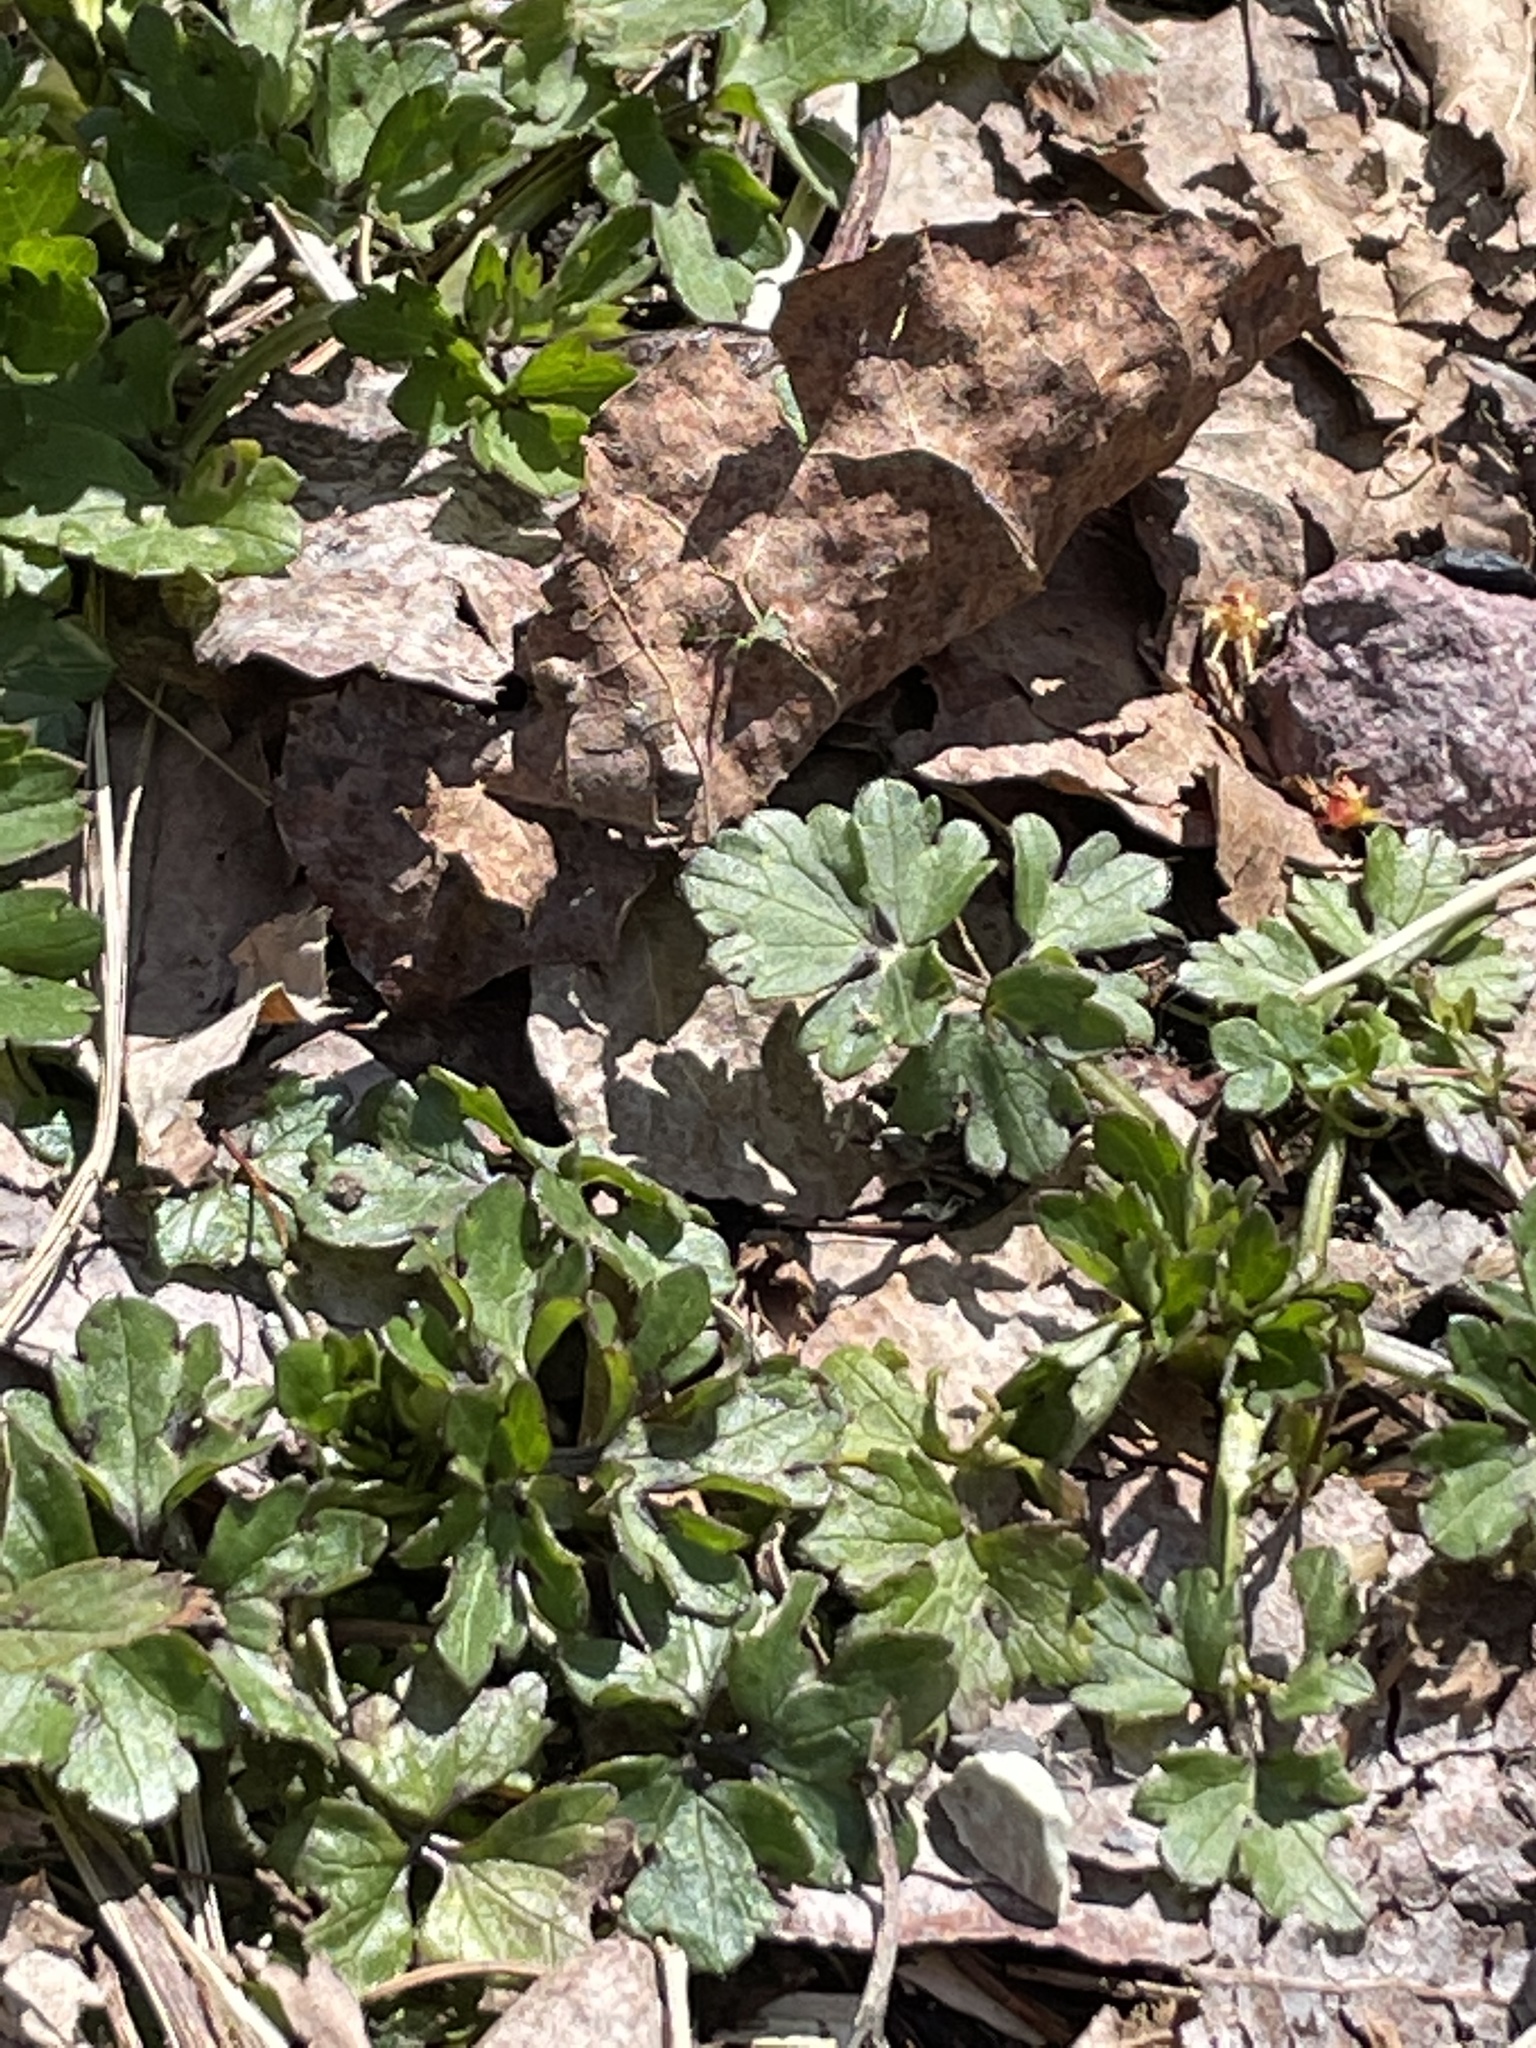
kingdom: Plantae
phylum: Tracheophyta
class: Magnoliopsida
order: Ranunculales
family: Ranunculaceae
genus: Ranunculus
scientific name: Ranunculus repens
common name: Creeping buttercup
